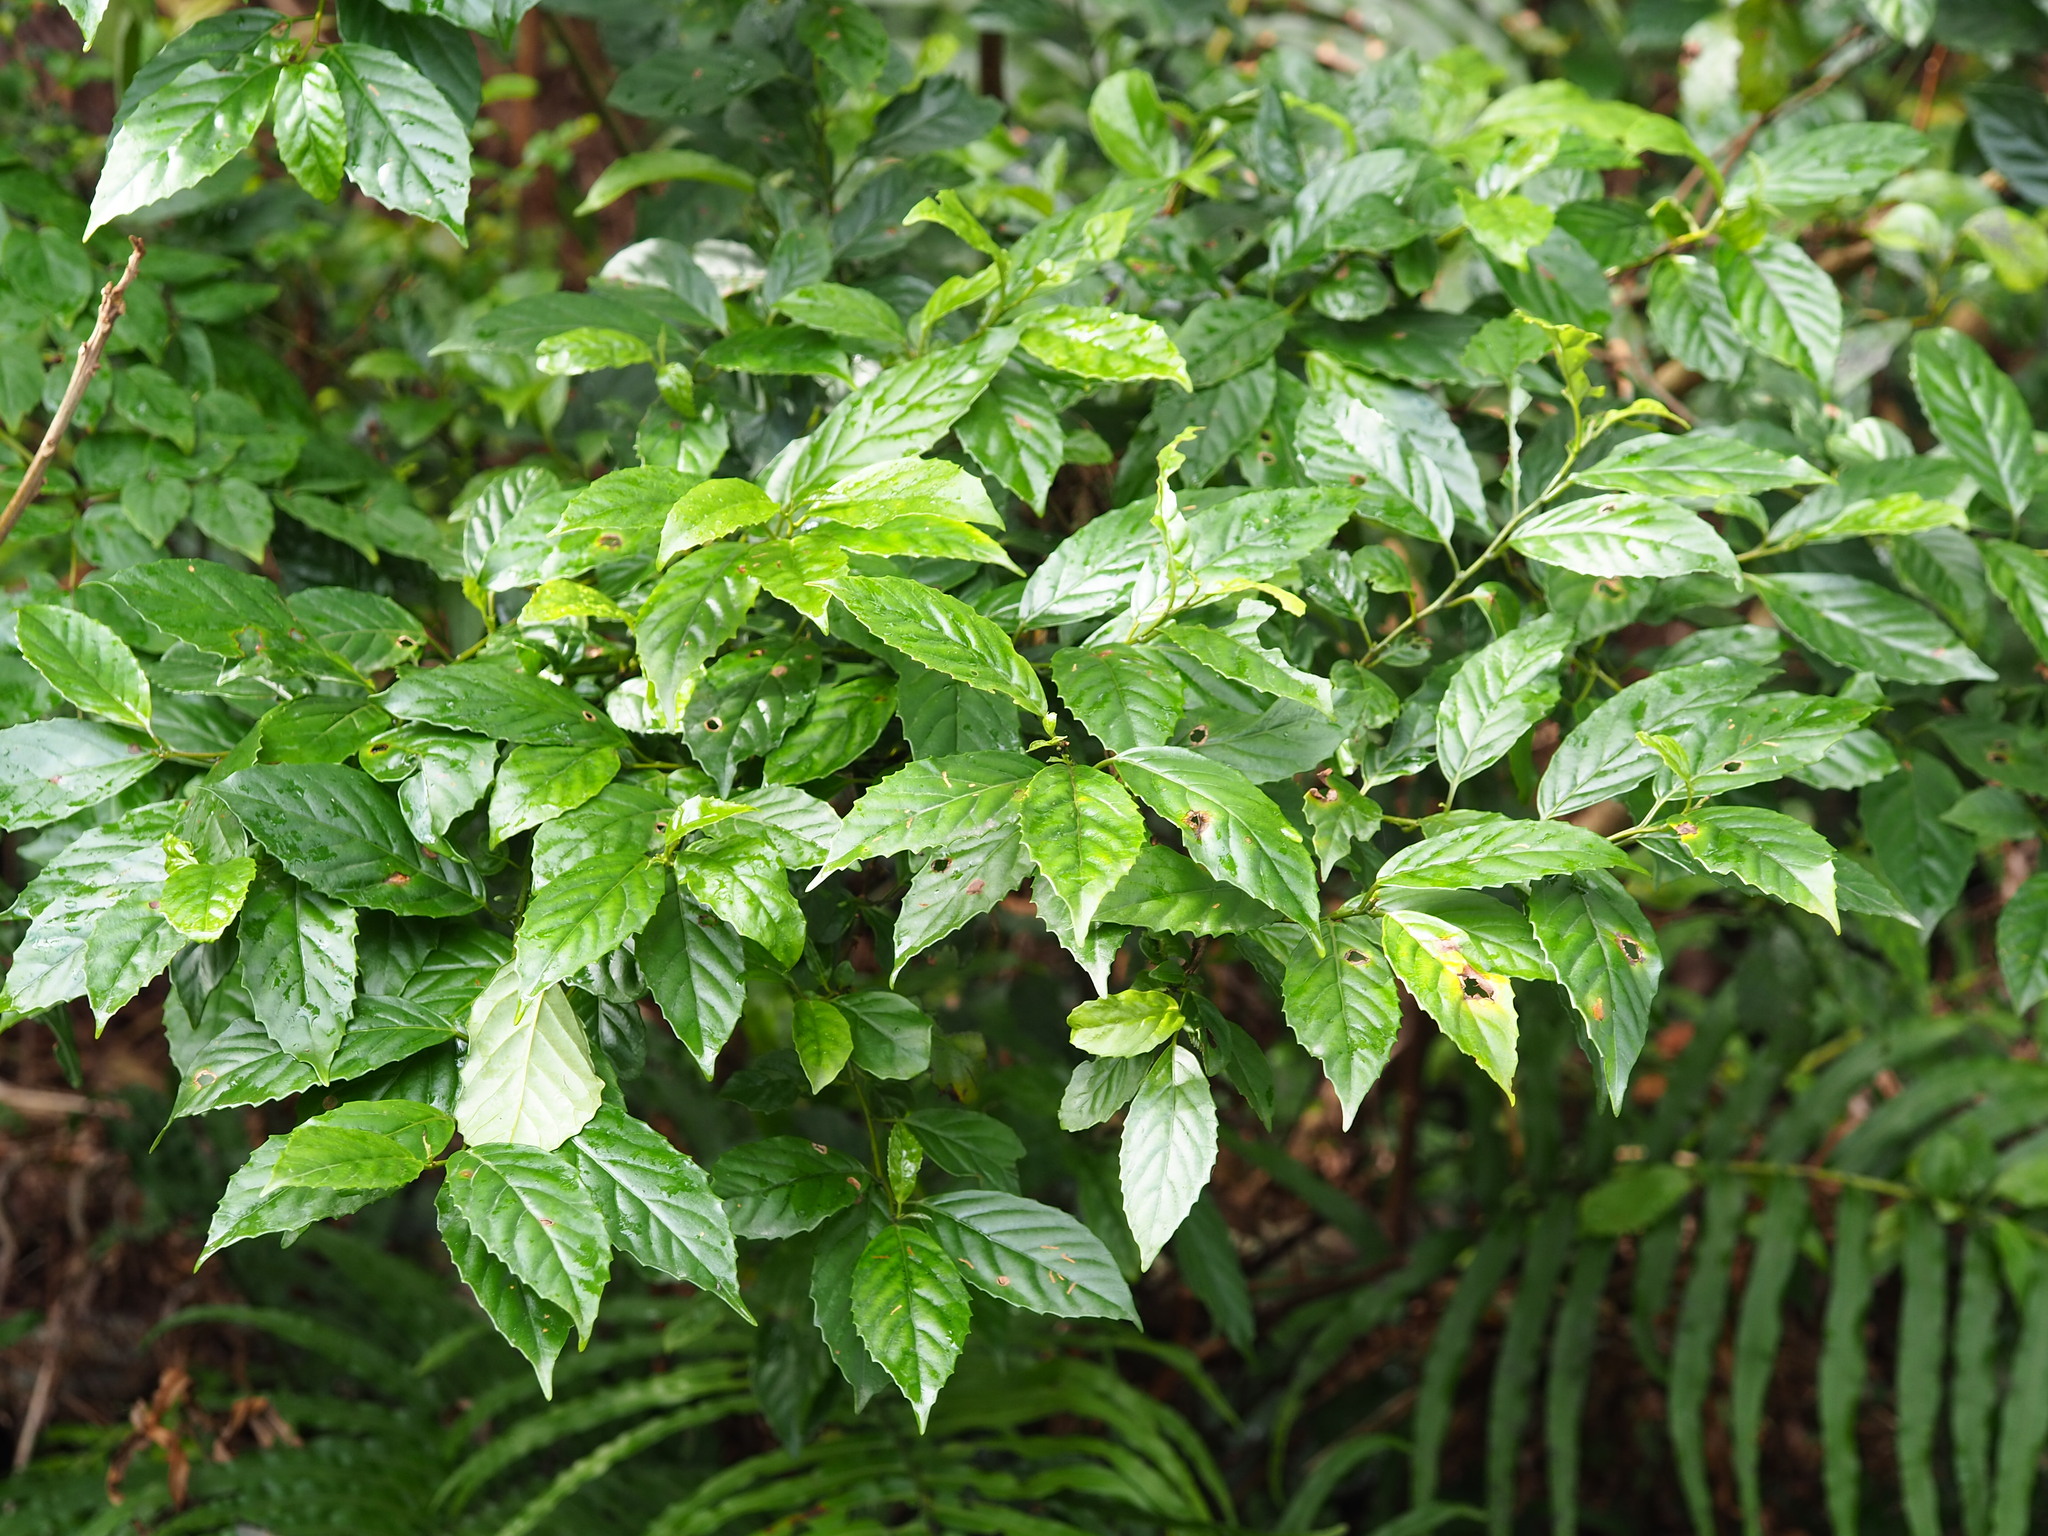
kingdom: Plantae
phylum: Tracheophyta
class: Magnoliopsida
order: Ericales
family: Primulaceae
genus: Maesa
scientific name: Maesa perlaria
